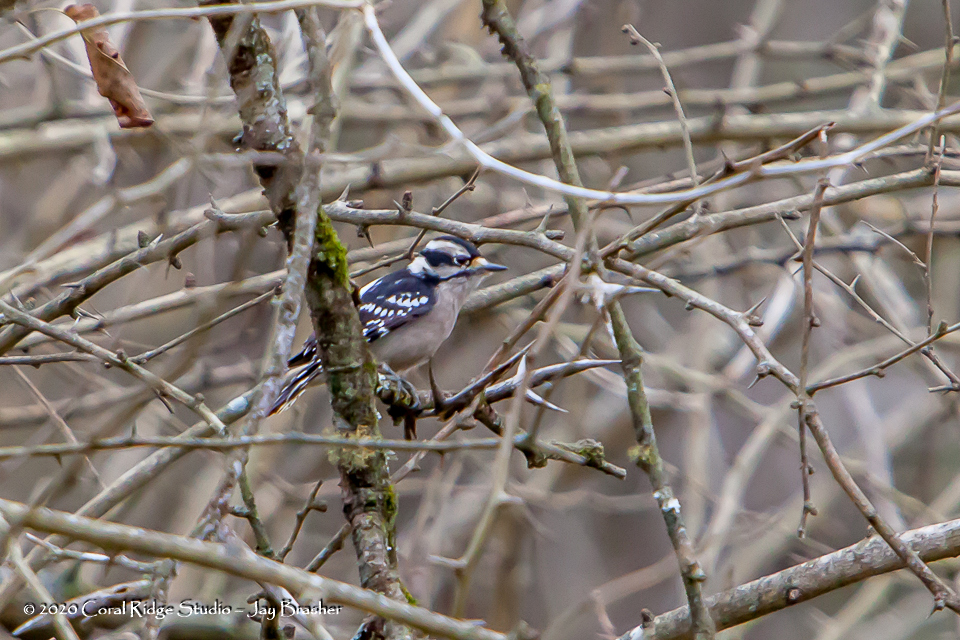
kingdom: Animalia
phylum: Chordata
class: Aves
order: Piciformes
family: Picidae
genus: Dryobates
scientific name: Dryobates pubescens
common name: Downy woodpecker
